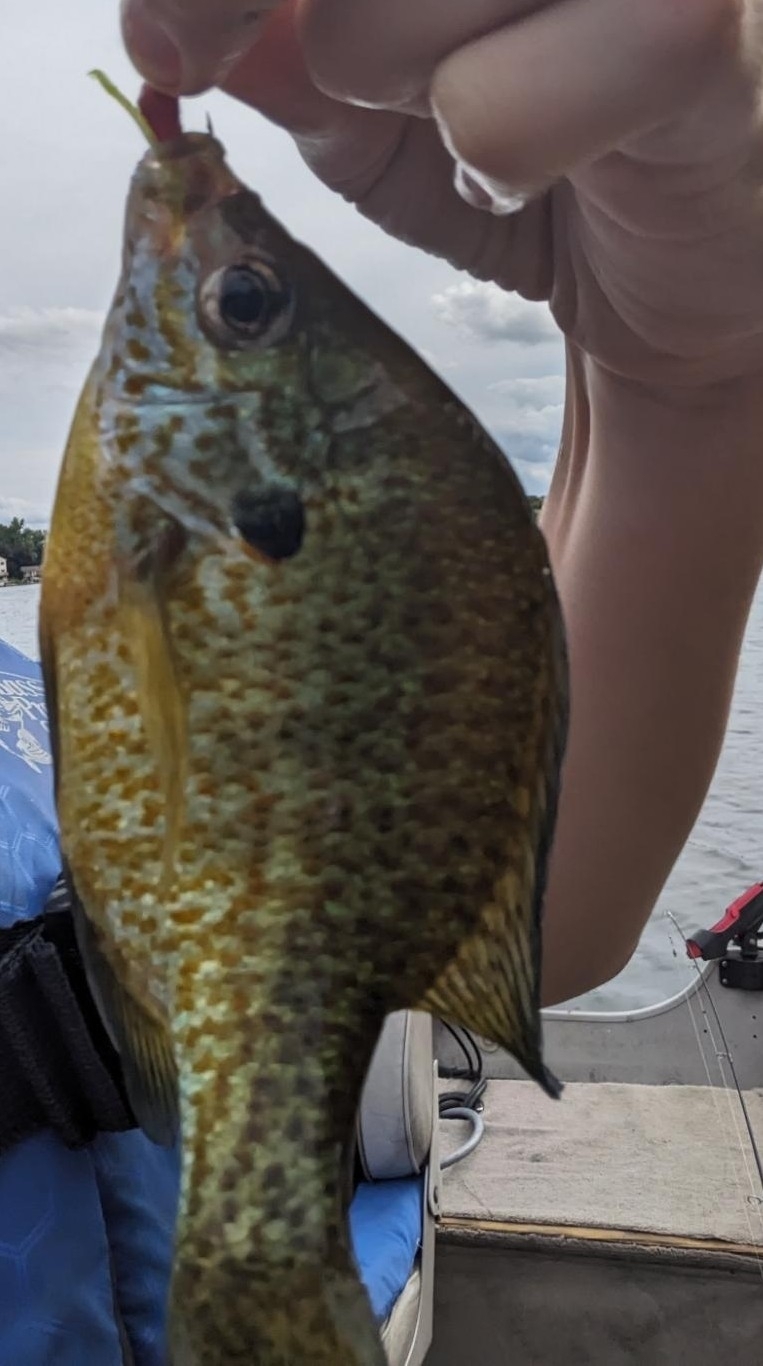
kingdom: Animalia
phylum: Chordata
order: Perciformes
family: Centrarchidae
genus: Lepomis
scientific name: Lepomis
